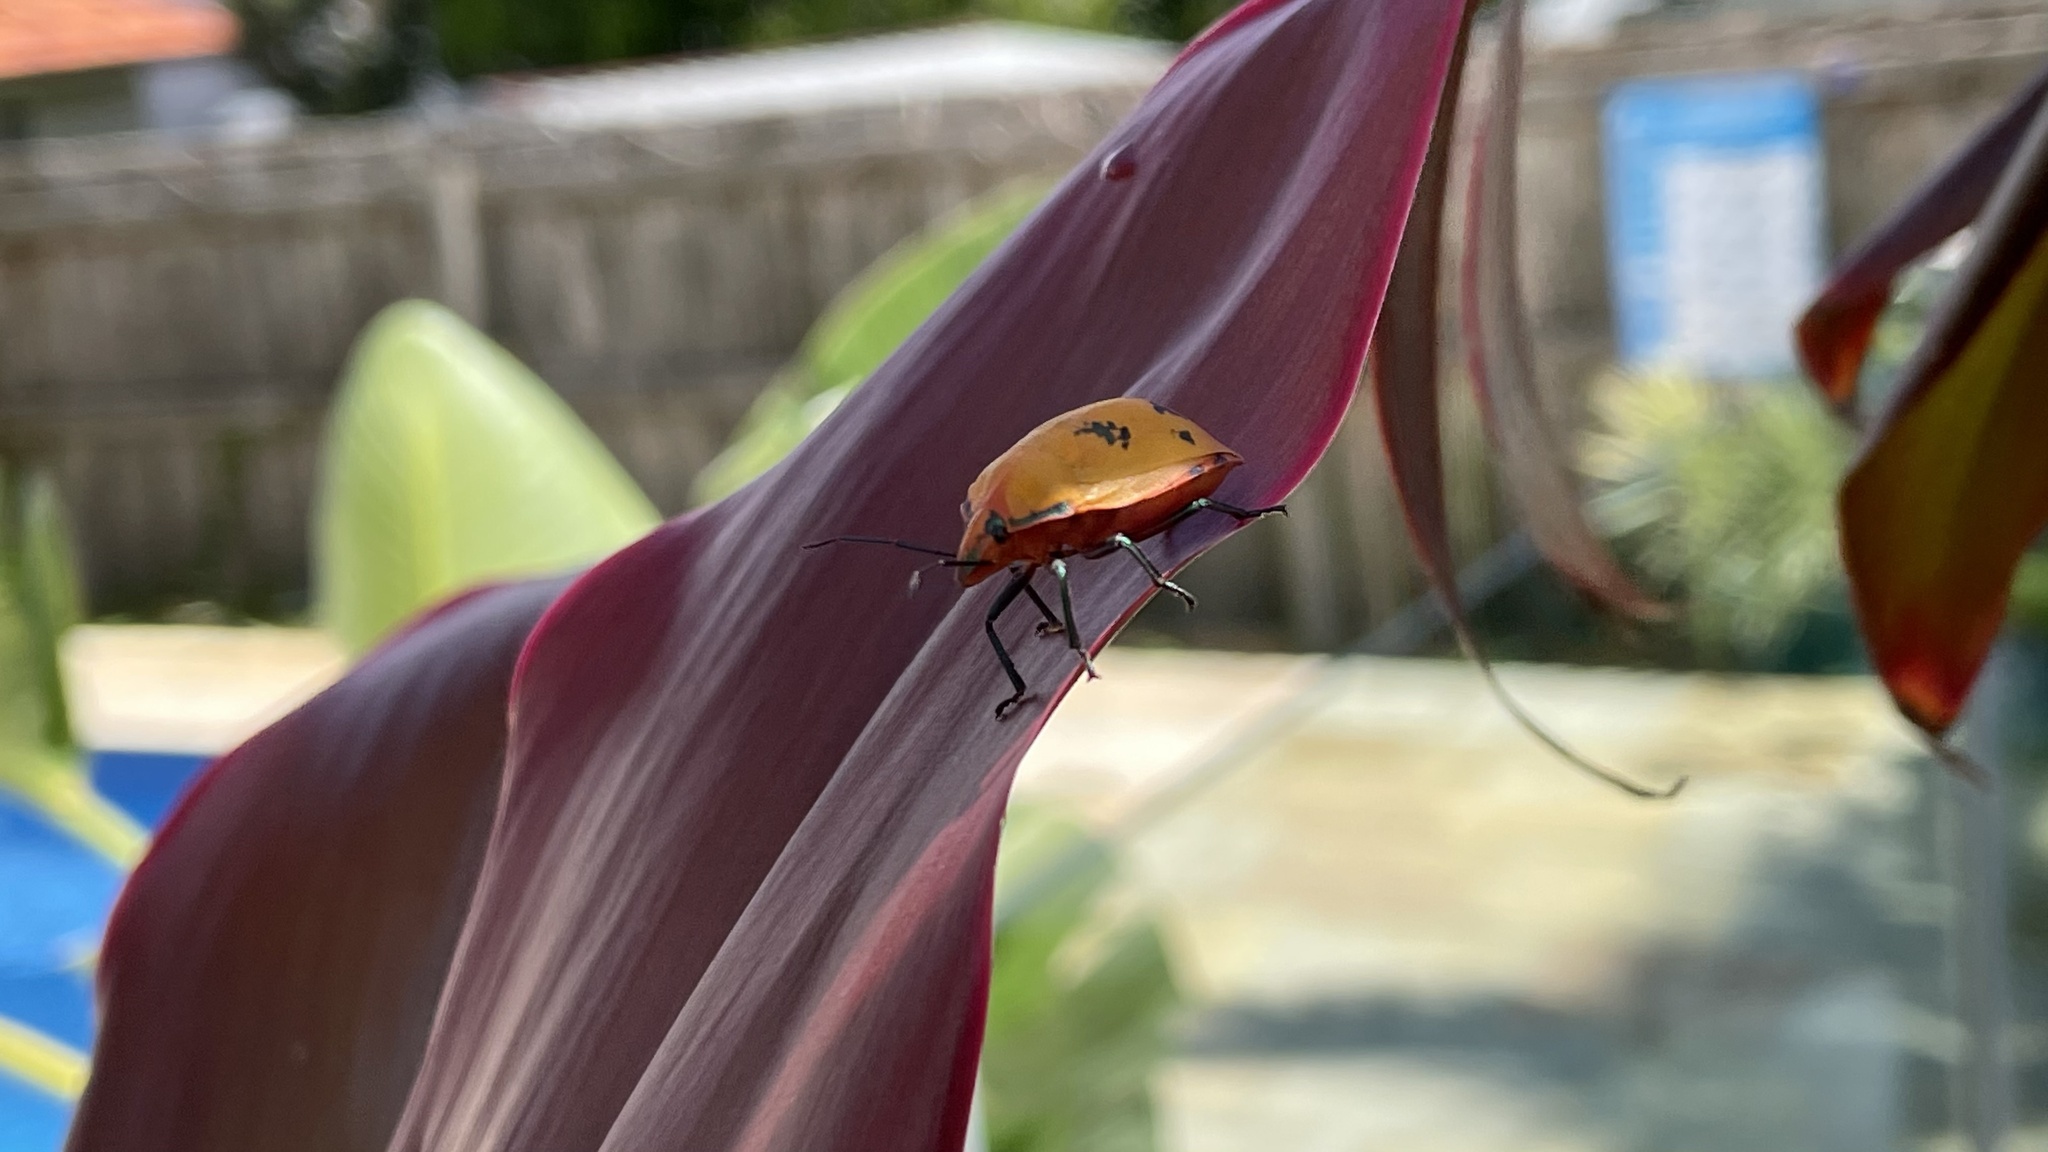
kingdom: Animalia
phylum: Arthropoda
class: Insecta
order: Hemiptera
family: Scutelleridae
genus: Tectocoris
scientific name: Tectocoris diophthalmus
